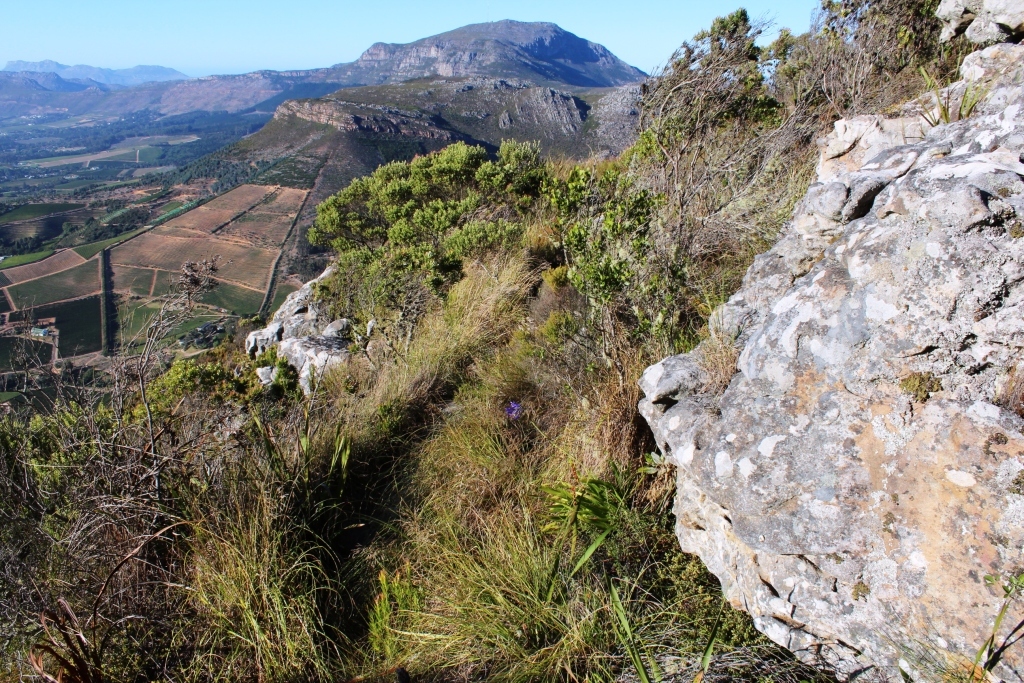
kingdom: Plantae
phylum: Tracheophyta
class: Liliopsida
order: Asparagales
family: Amaryllidaceae
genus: Agapanthus
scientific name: Agapanthus africanus
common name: Lily-of-the-nile
